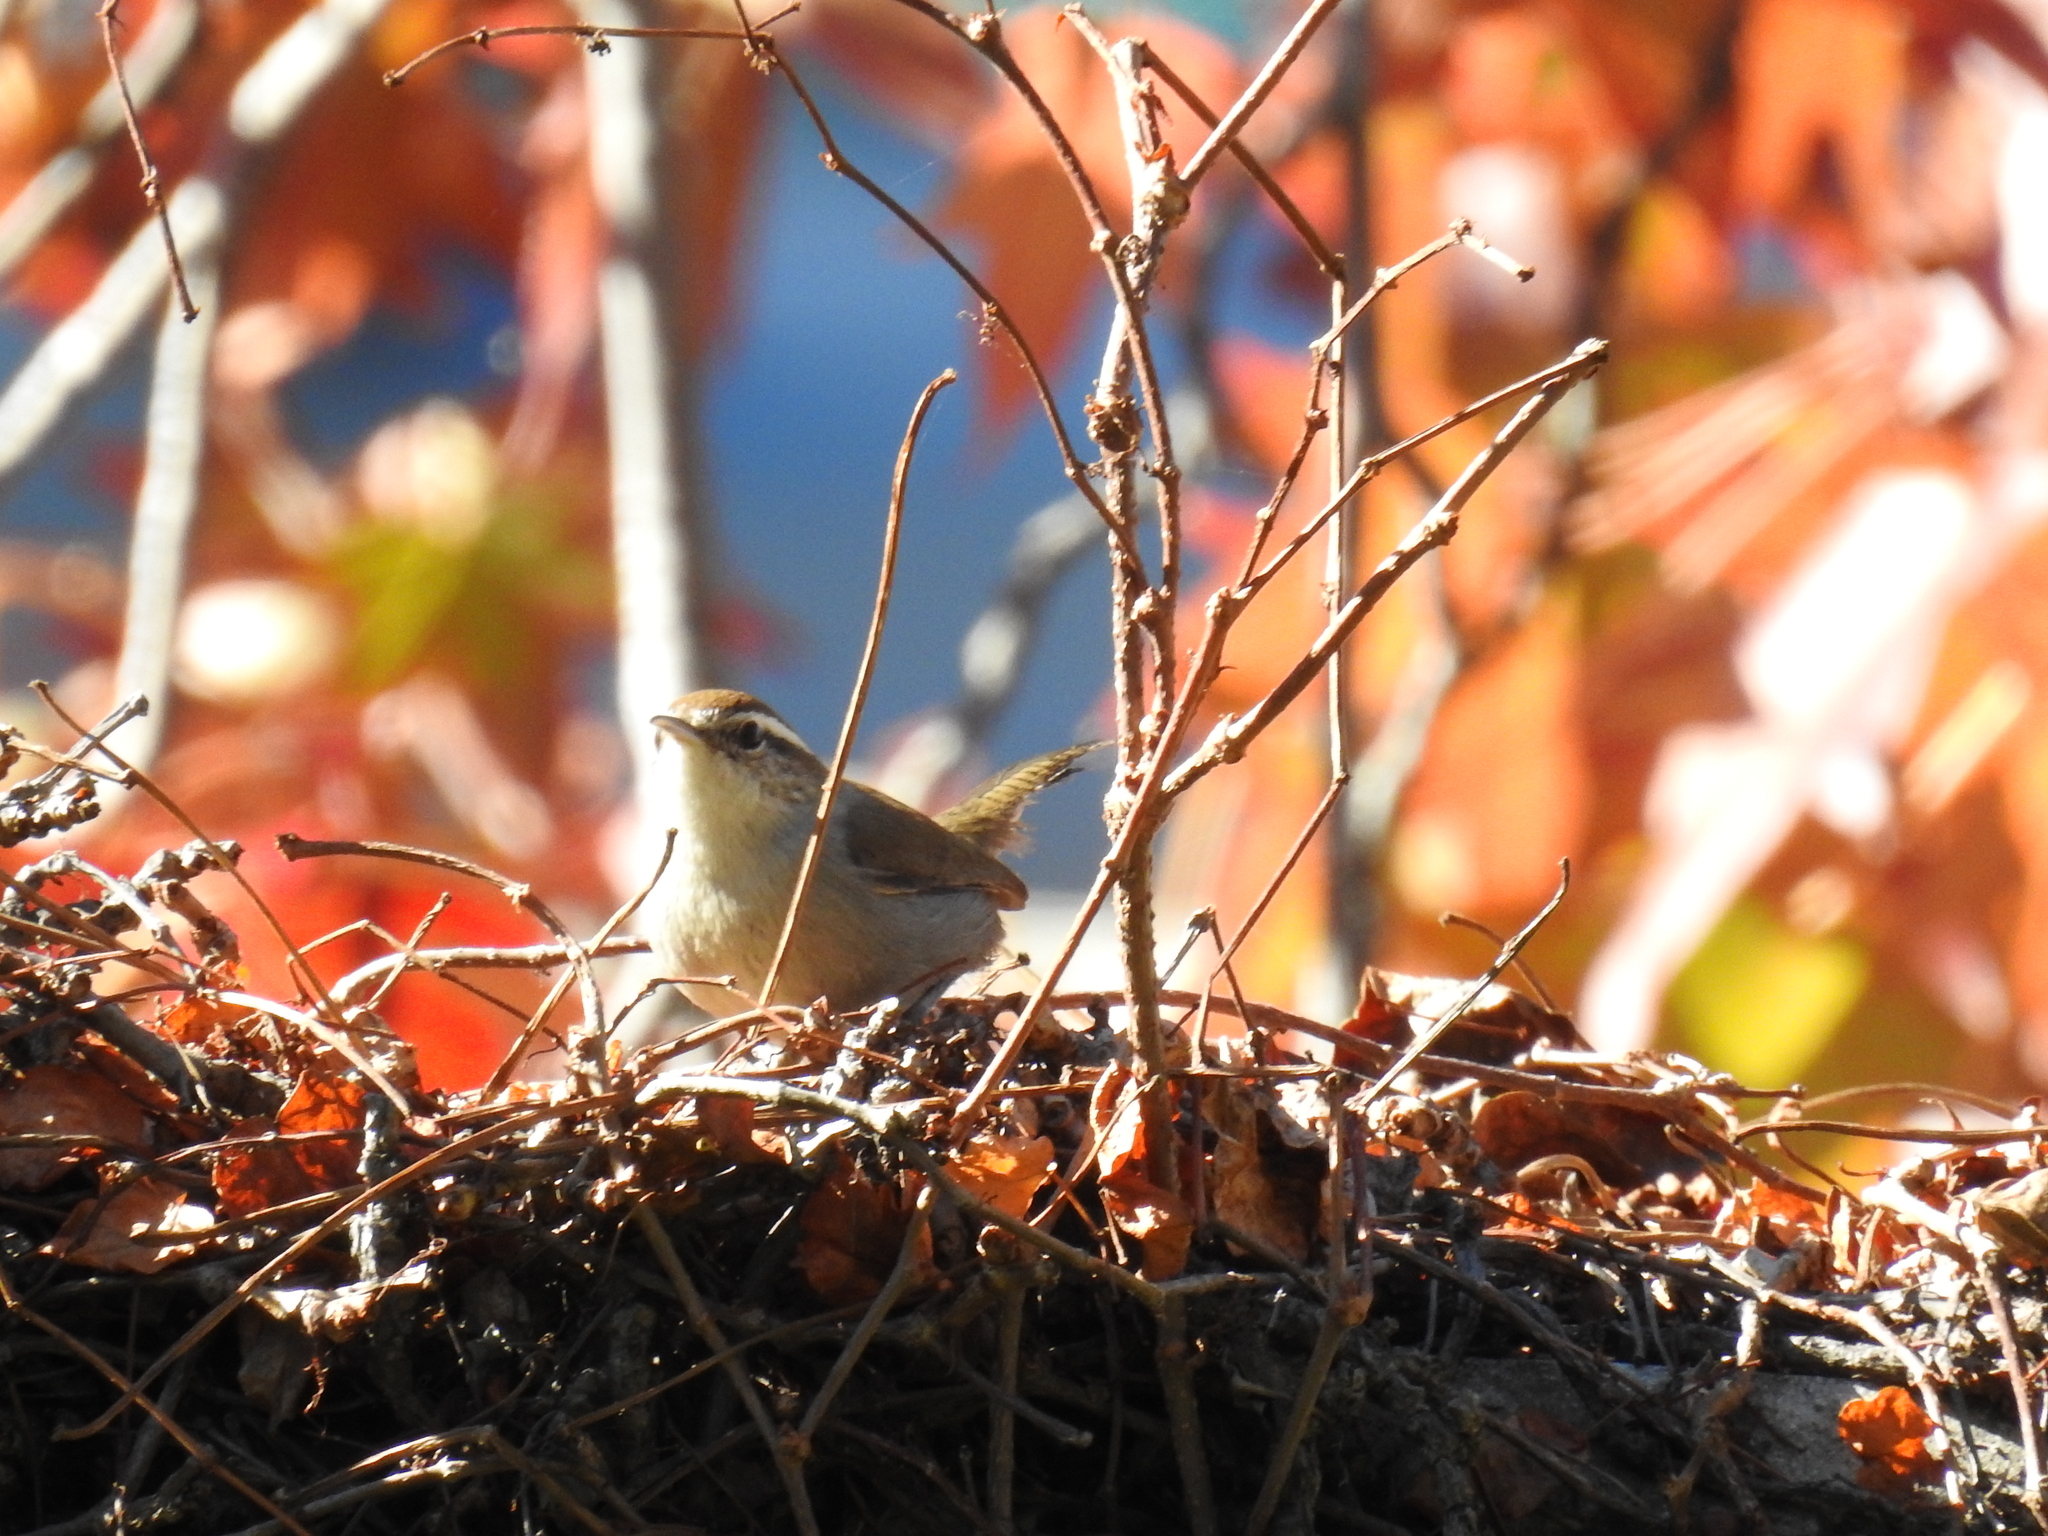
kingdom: Animalia
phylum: Chordata
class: Aves
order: Passeriformes
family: Troglodytidae
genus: Thryomanes
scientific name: Thryomanes bewickii
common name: Bewick's wren
